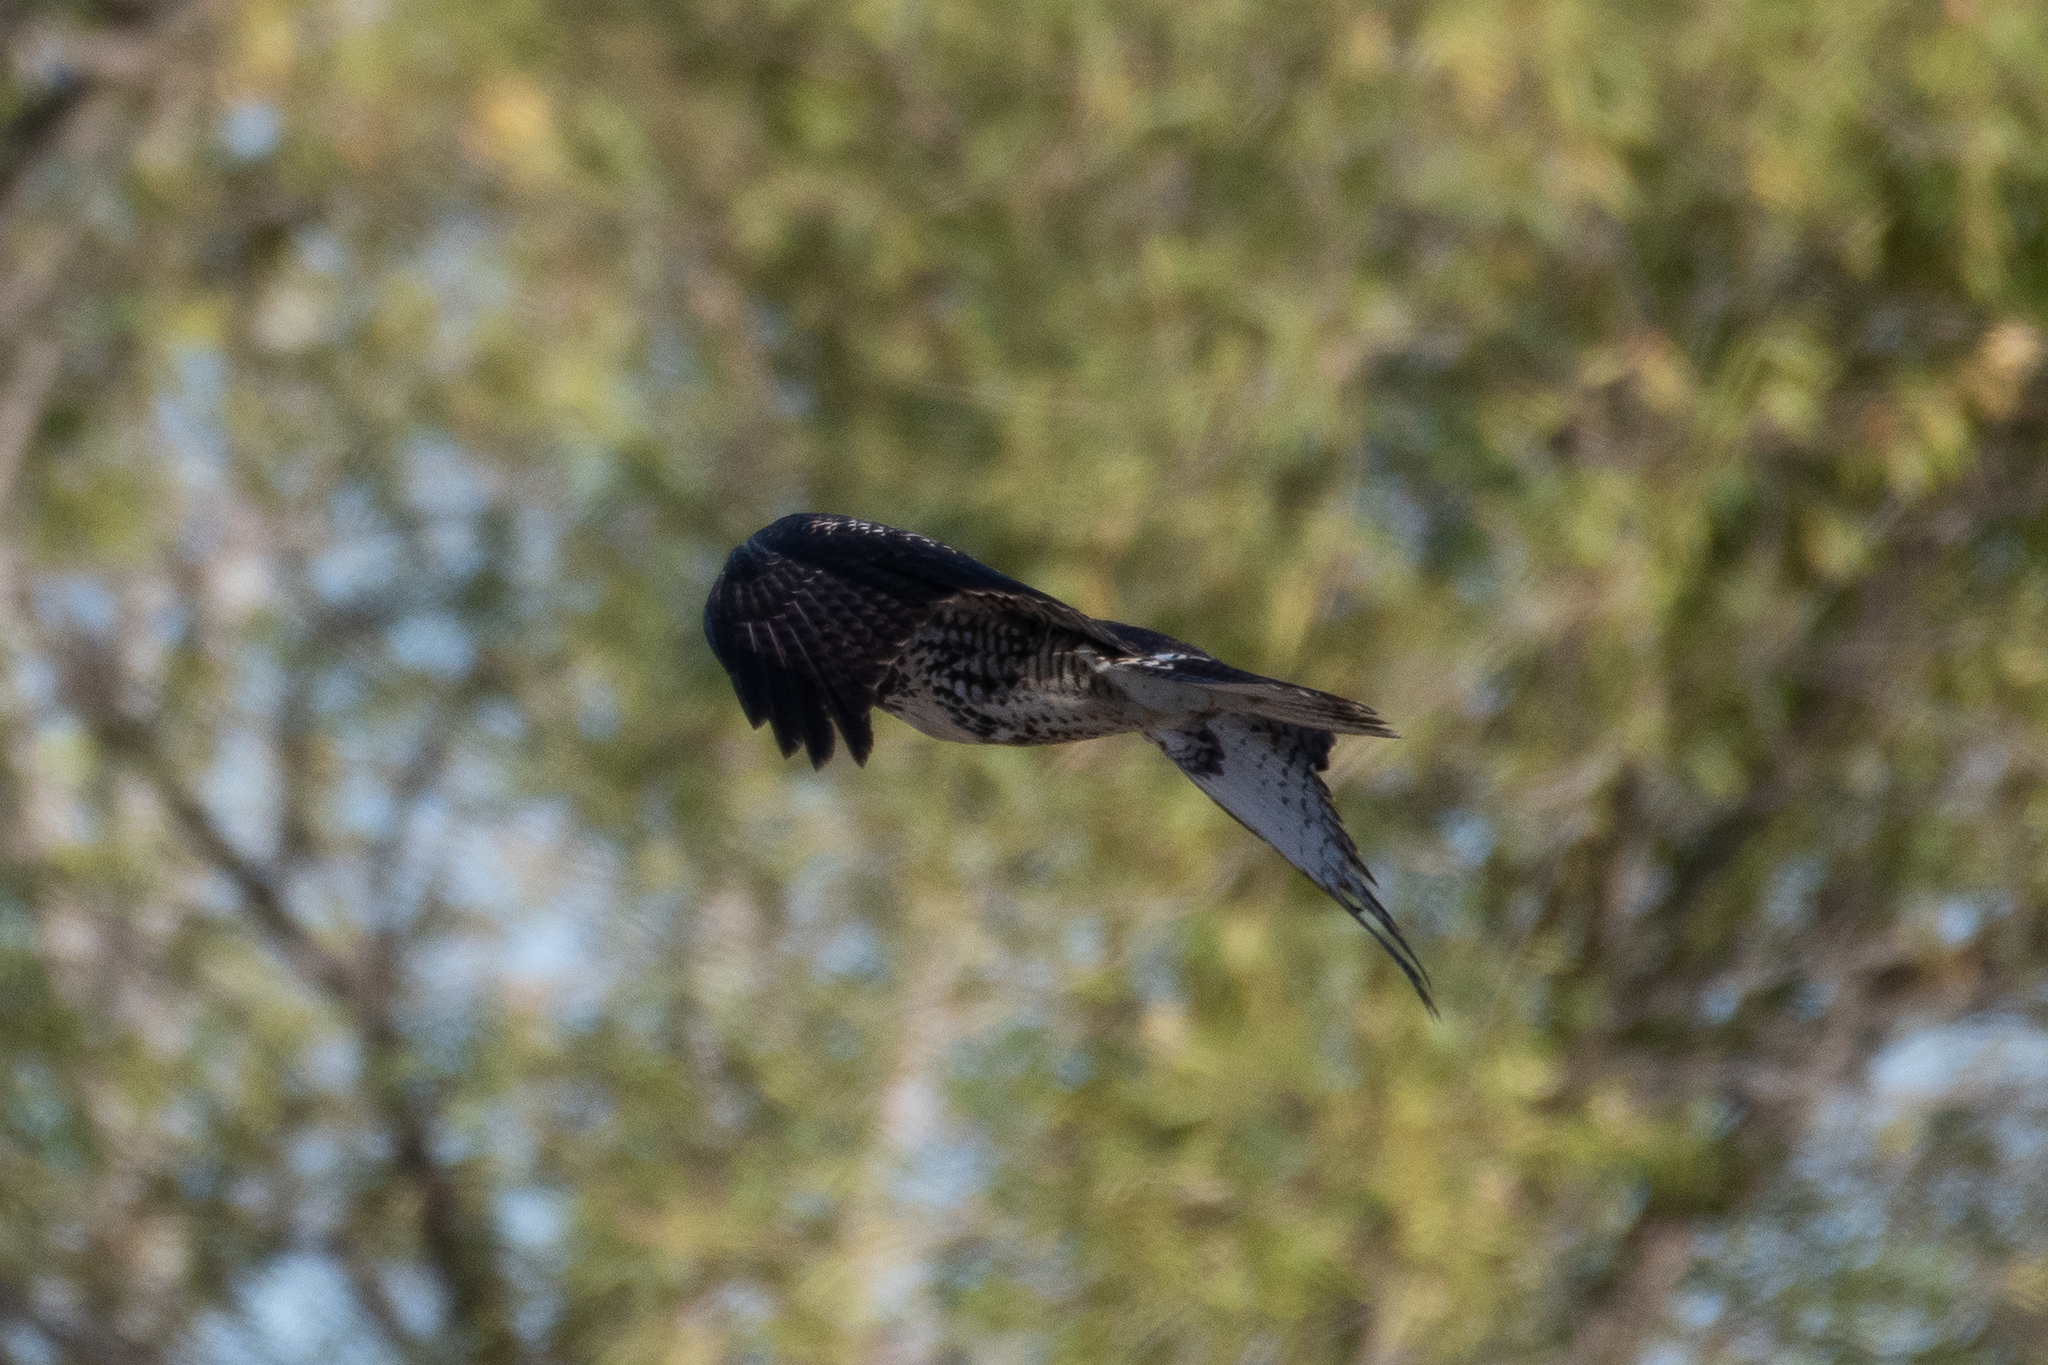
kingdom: Animalia
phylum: Chordata
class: Aves
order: Accipitriformes
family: Accipitridae
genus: Buteo
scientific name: Buteo jamaicensis
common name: Red-tailed hawk
